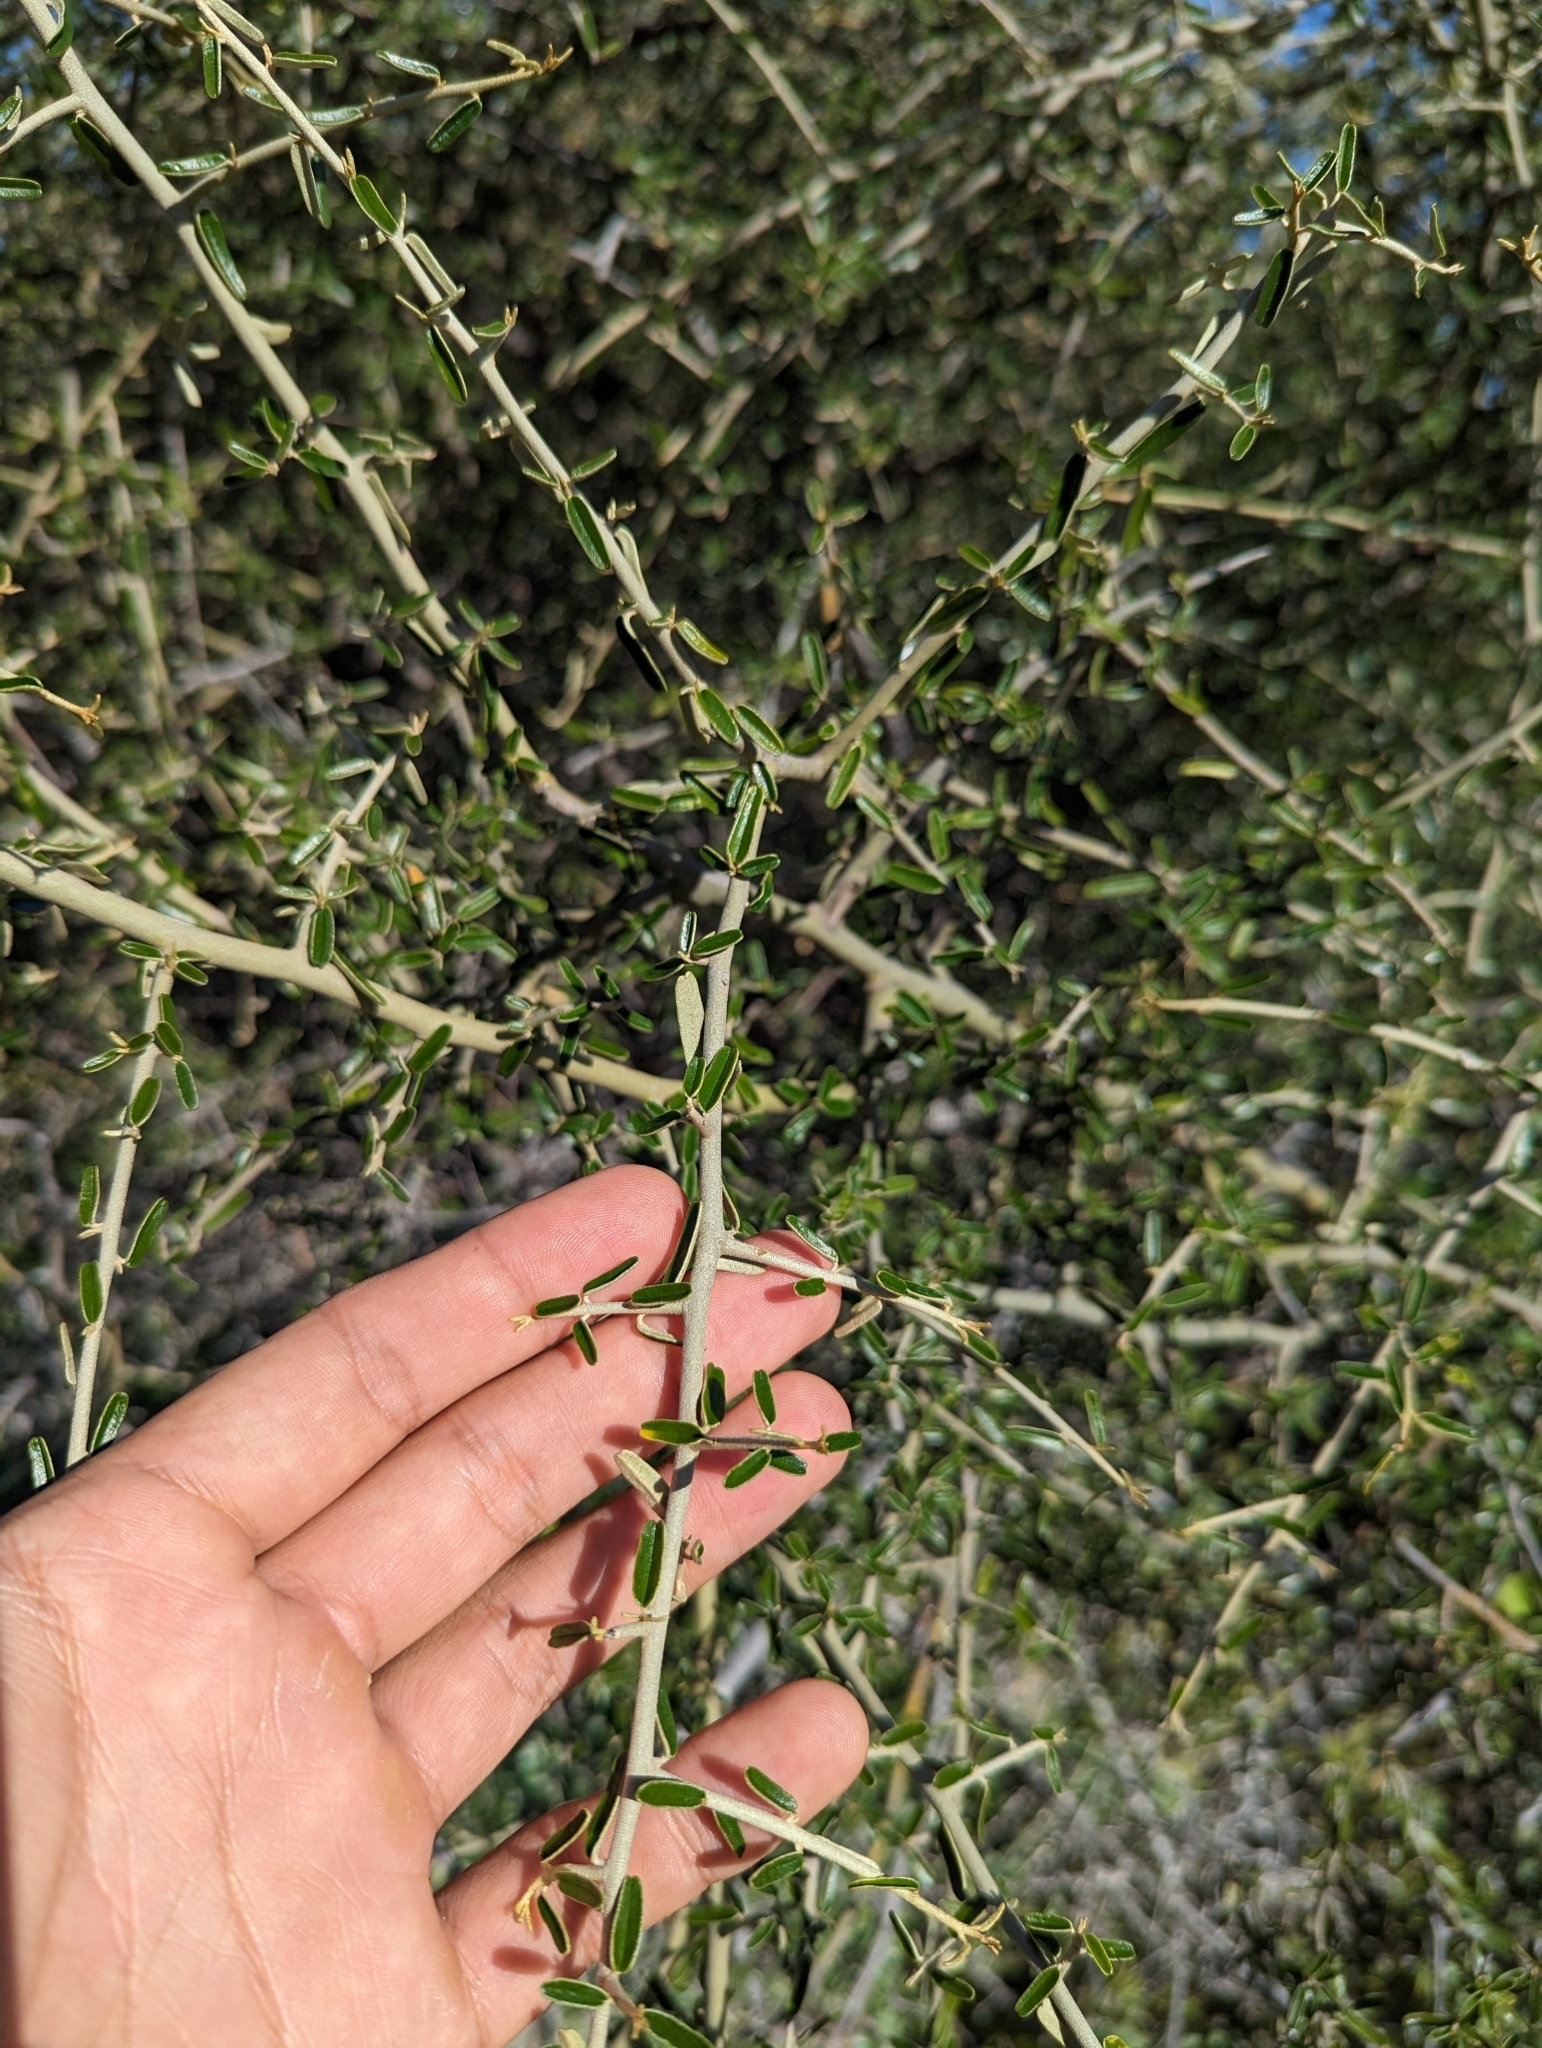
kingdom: Plantae
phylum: Tracheophyta
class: Magnoliopsida
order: Brassicales
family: Capparaceae
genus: Atamisquea
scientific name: Atamisquea emarginata
